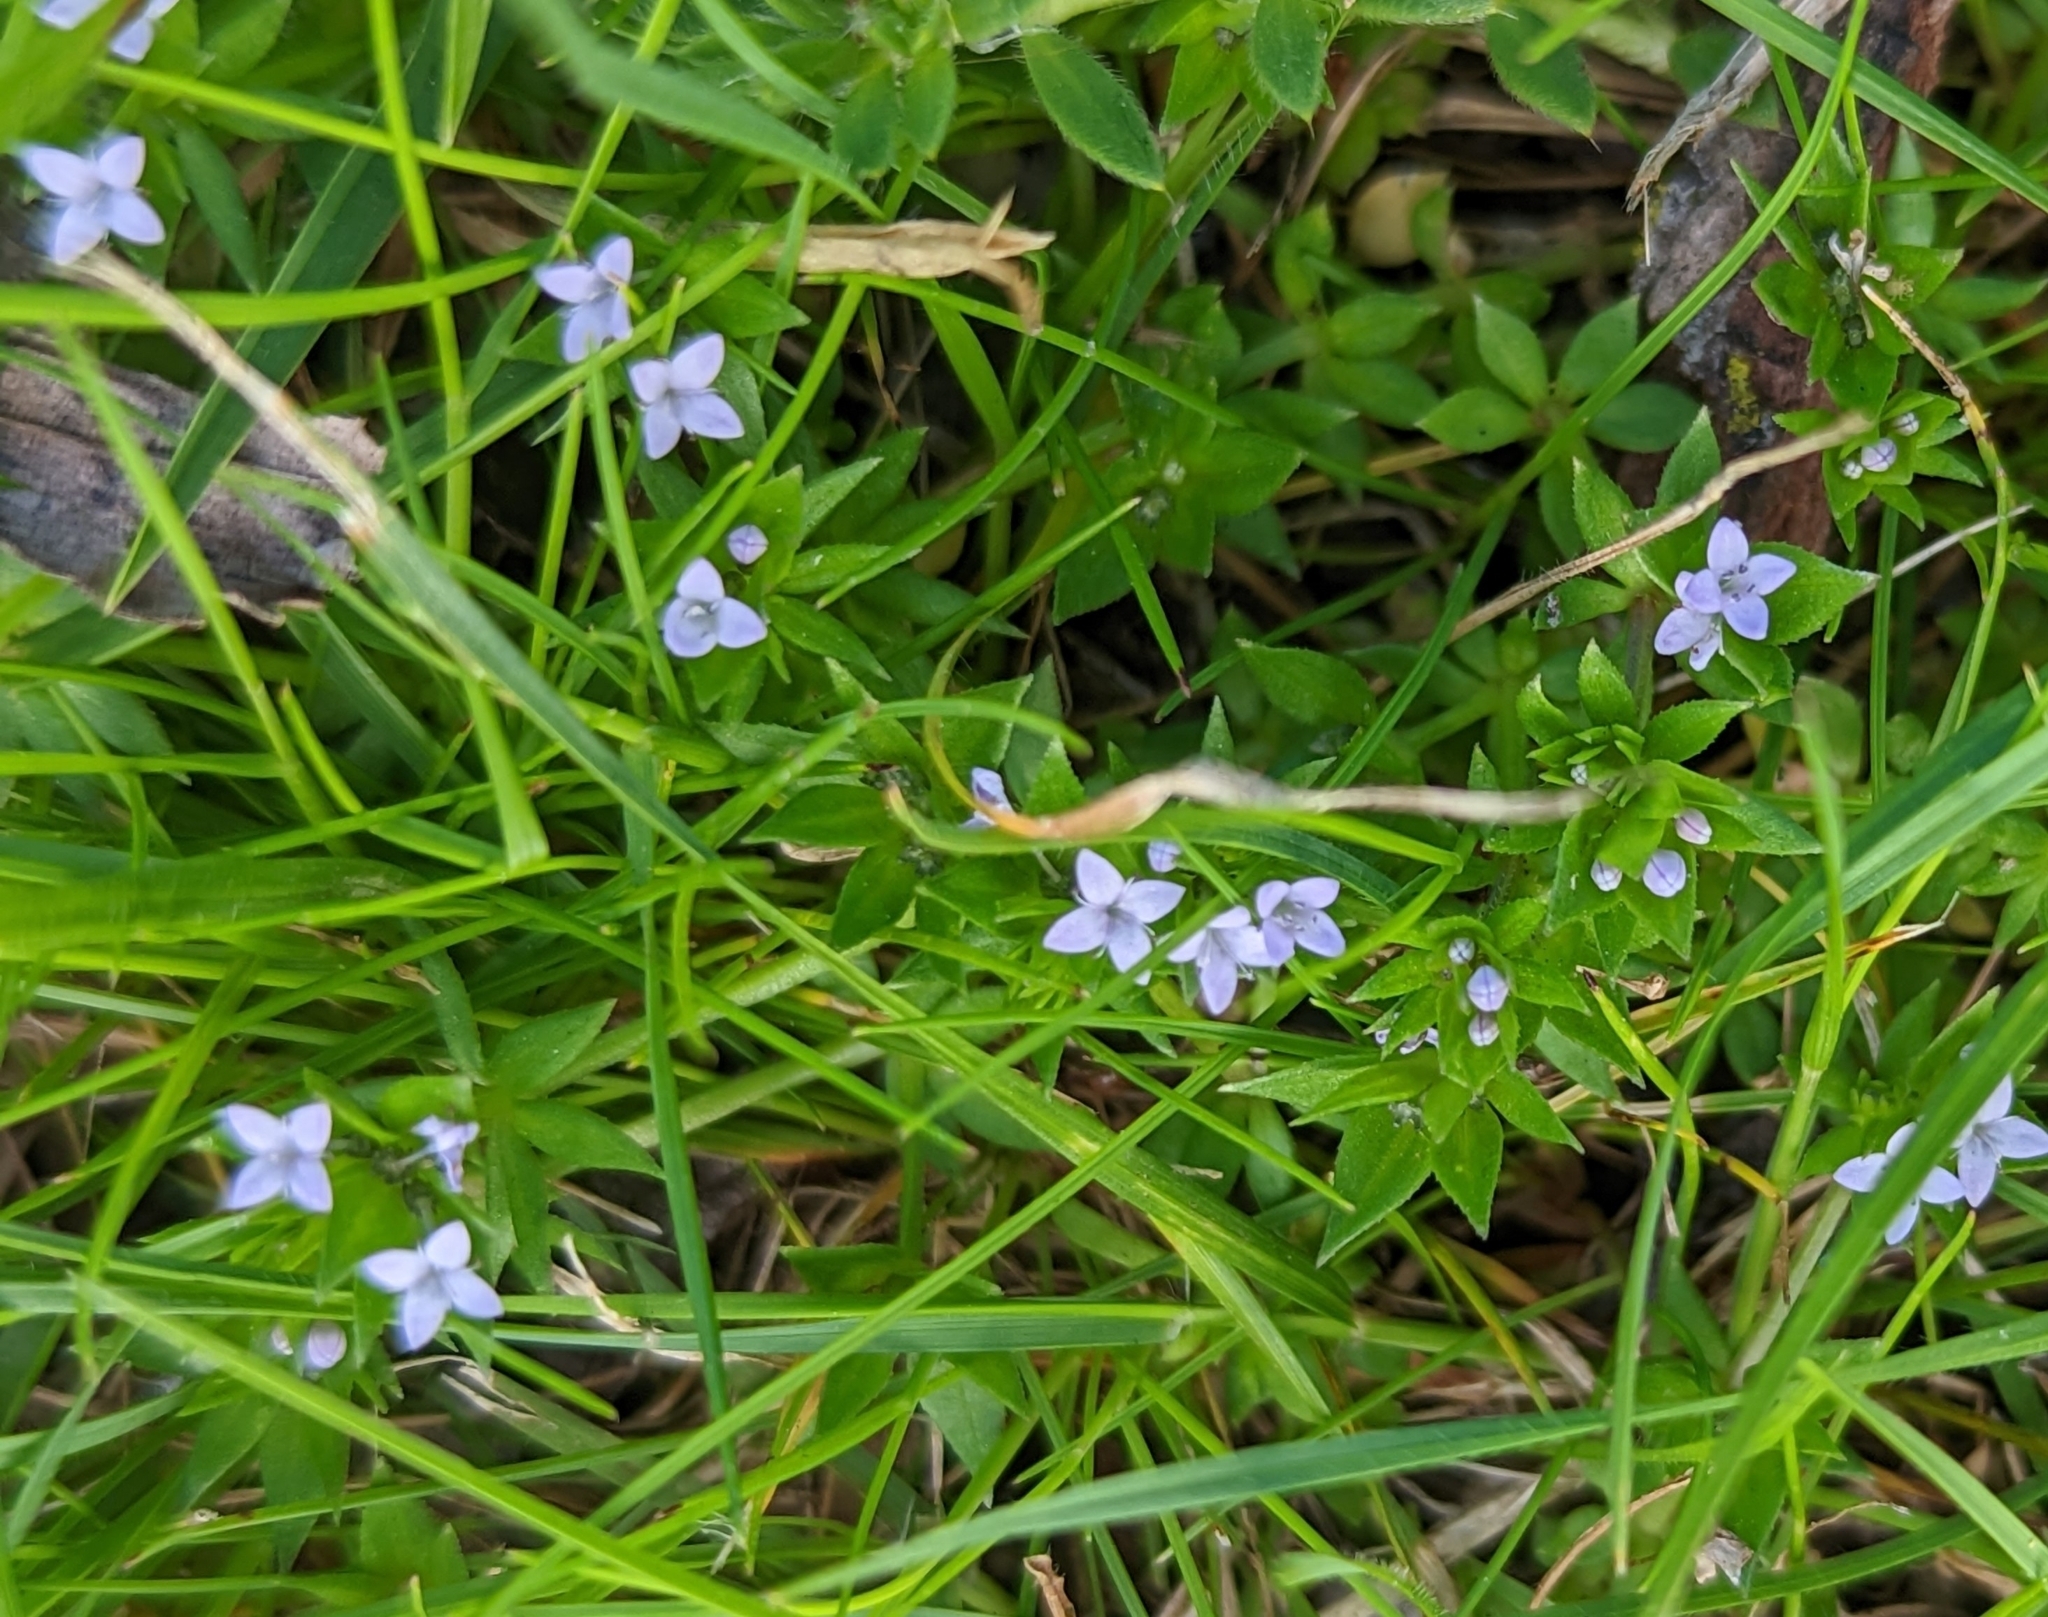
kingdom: Plantae
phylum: Tracheophyta
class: Magnoliopsida
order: Gentianales
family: Rubiaceae
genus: Sherardia
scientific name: Sherardia arvensis
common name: Field madder
